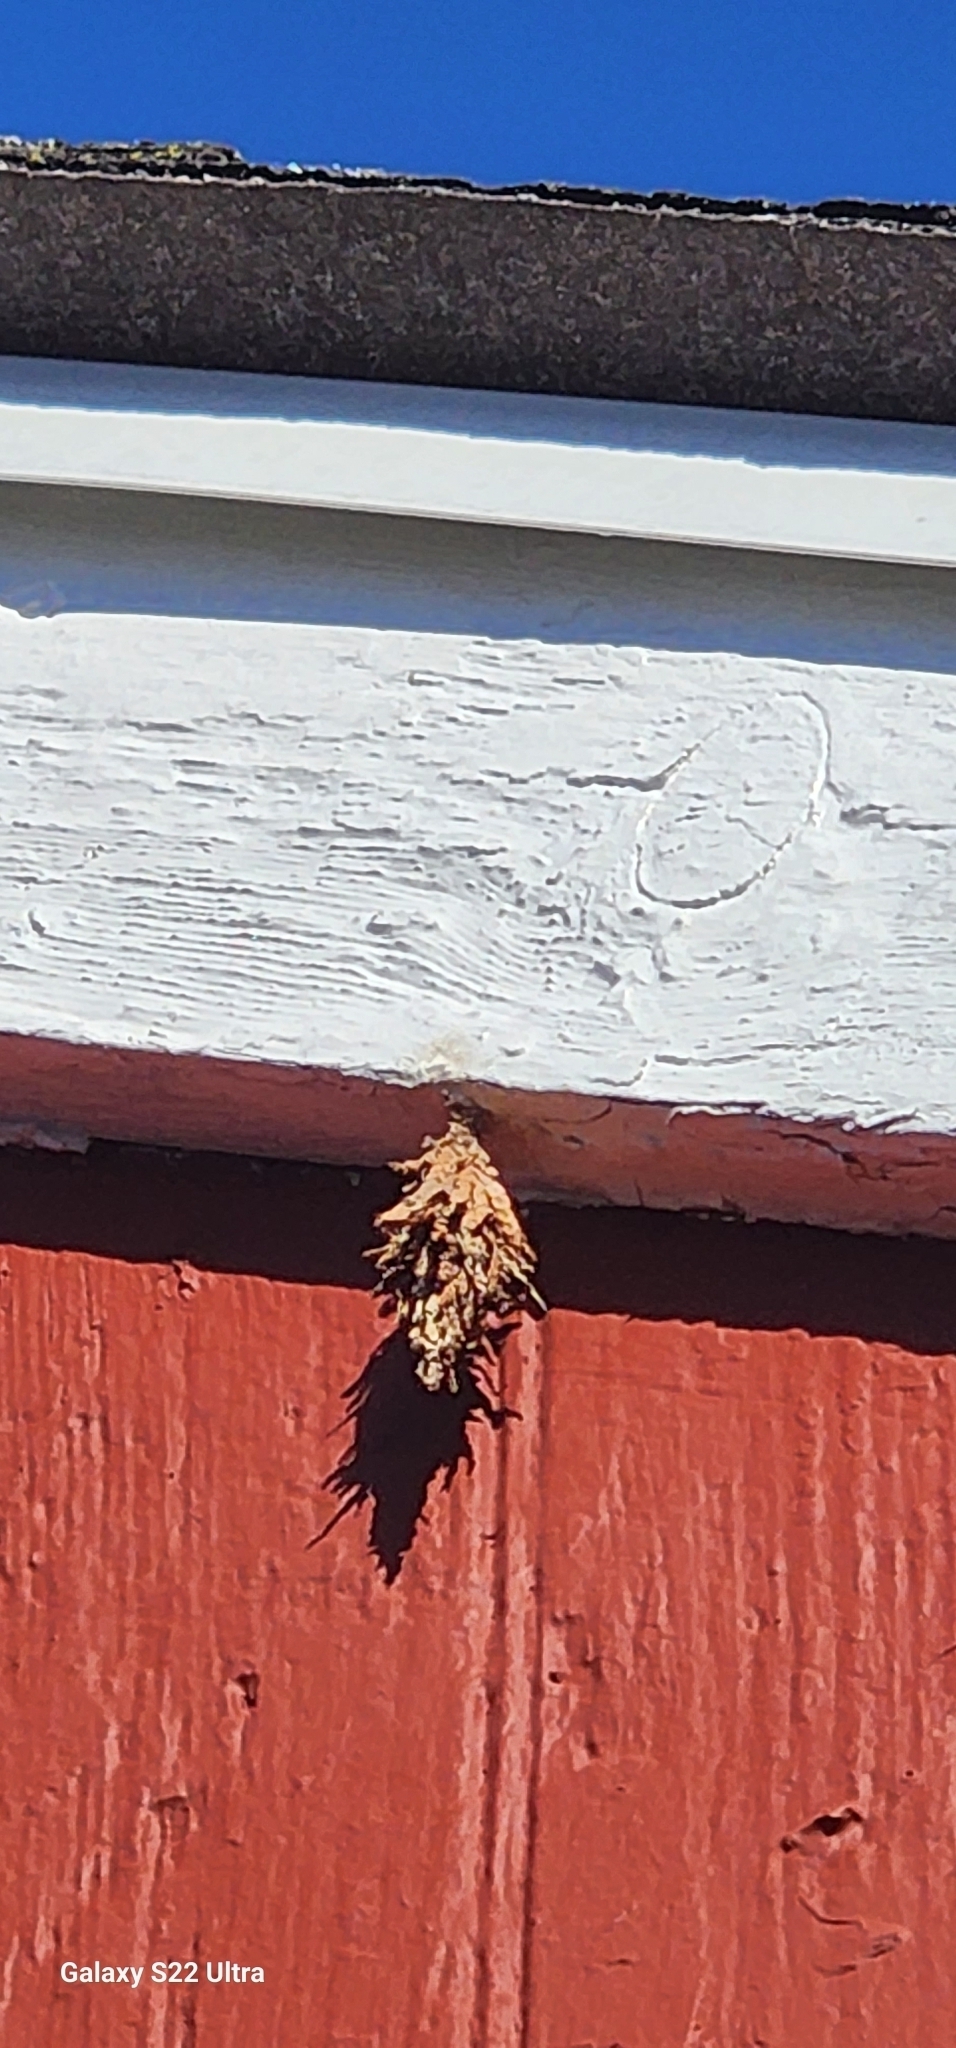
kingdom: Animalia
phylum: Arthropoda
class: Insecta
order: Lepidoptera
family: Psychidae
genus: Thyridopteryx
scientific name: Thyridopteryx ephemeraeformis
